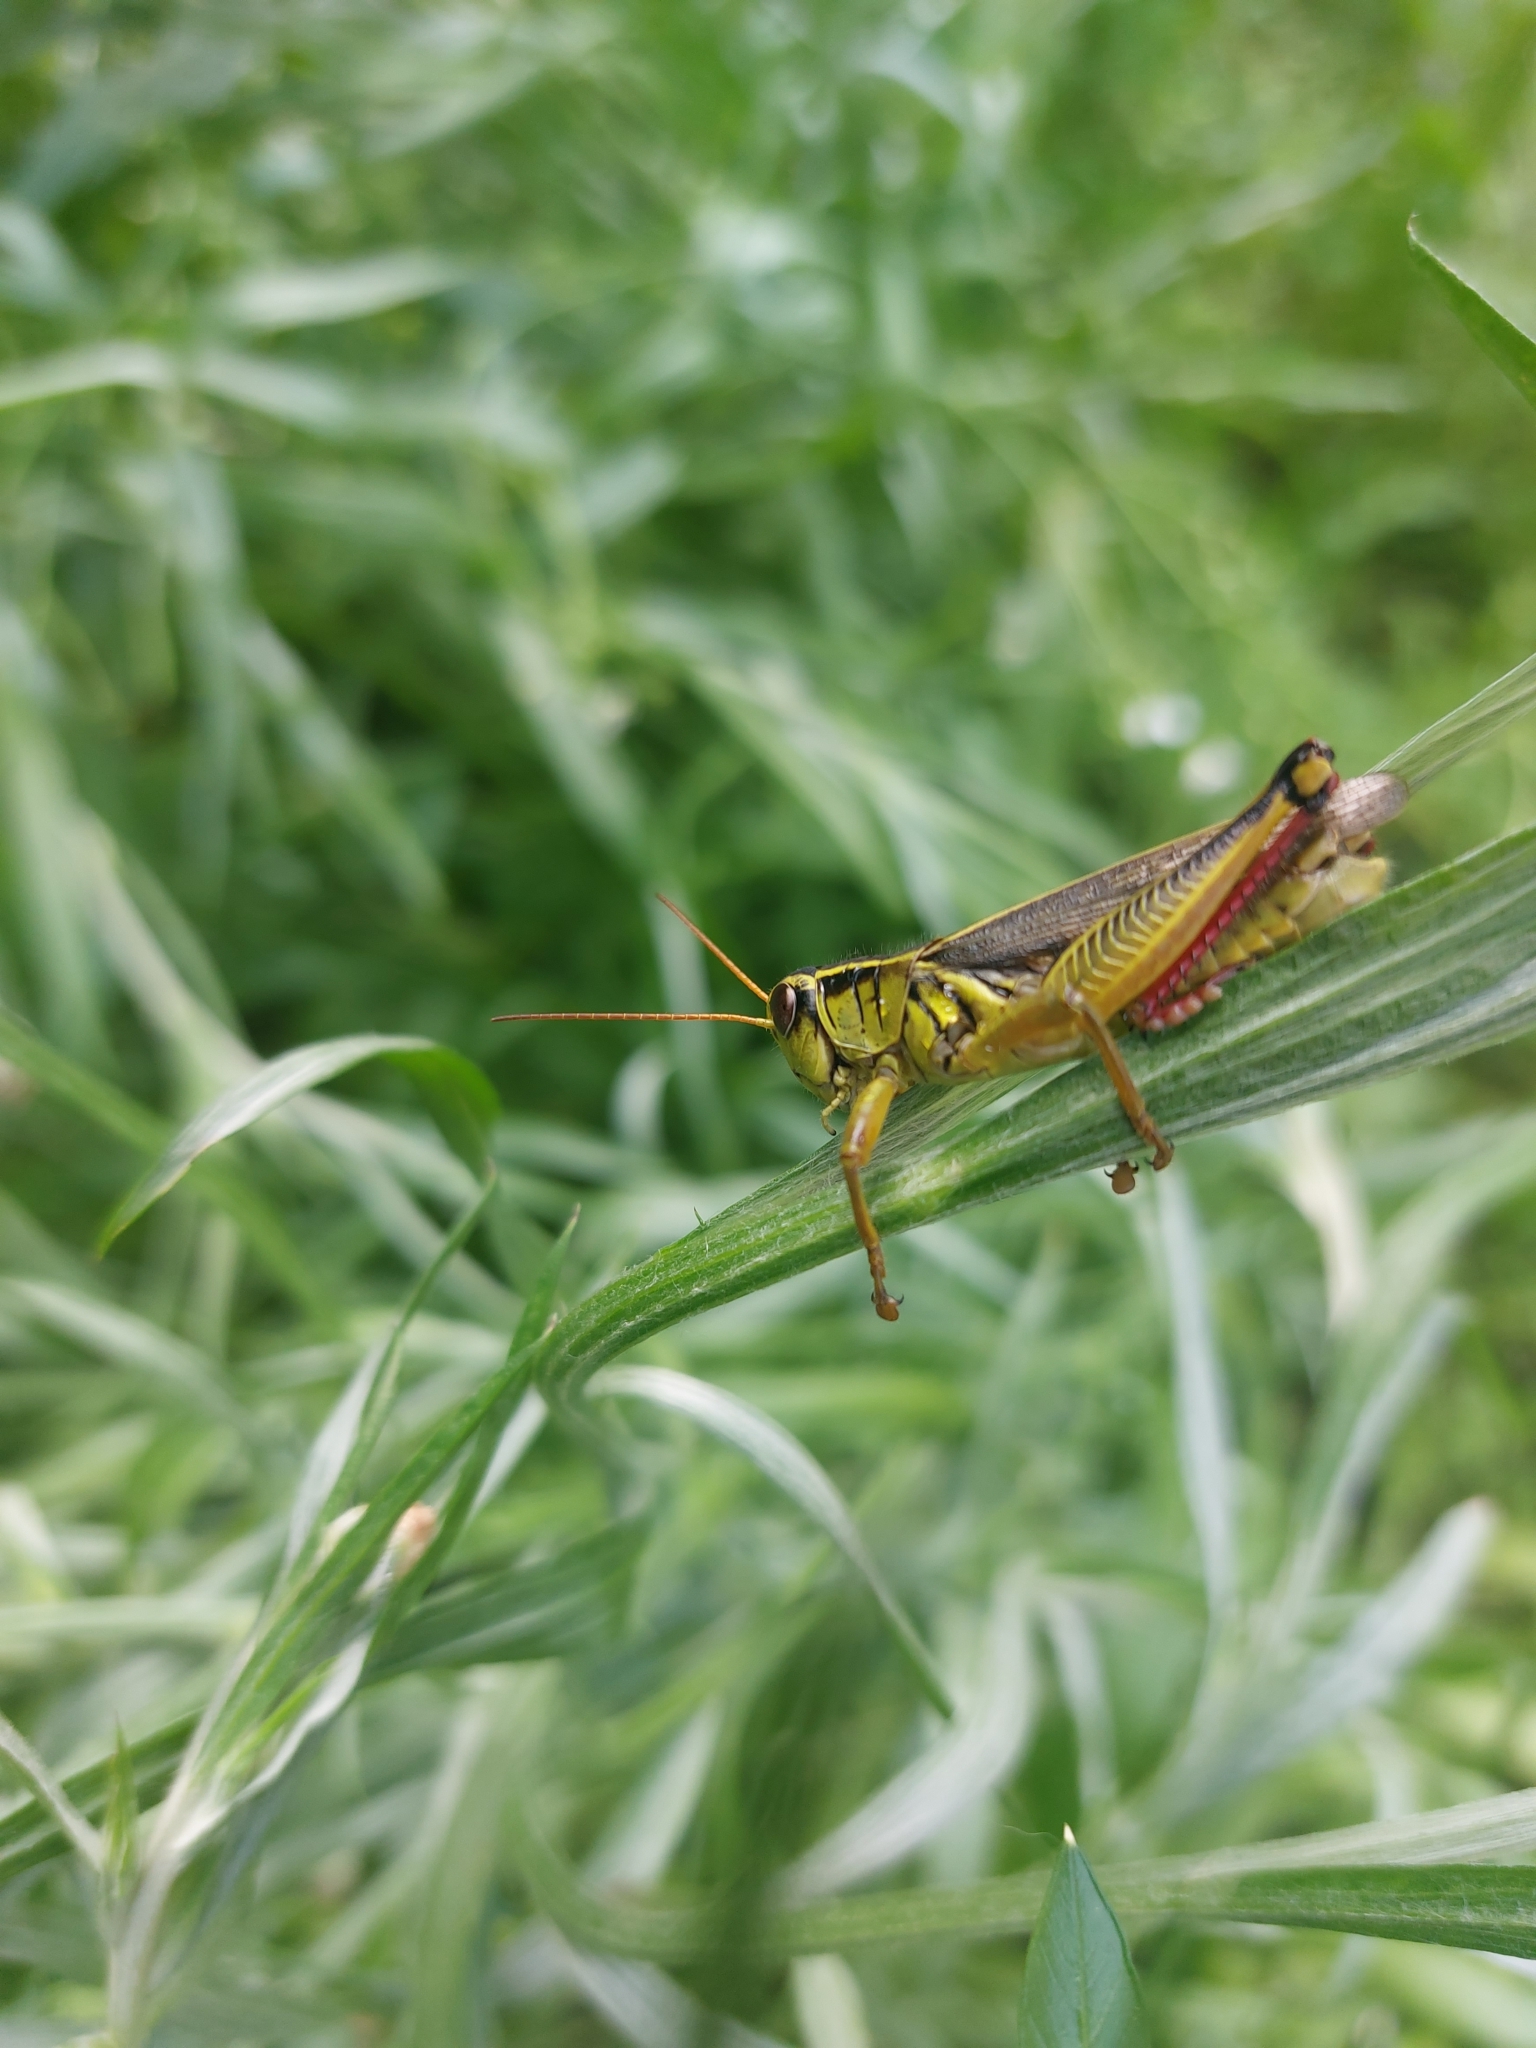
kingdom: Animalia
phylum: Arthropoda
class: Insecta
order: Orthoptera
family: Acrididae
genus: Melanoplus
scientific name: Melanoplus bivittatus
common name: Two-striped grasshopper
